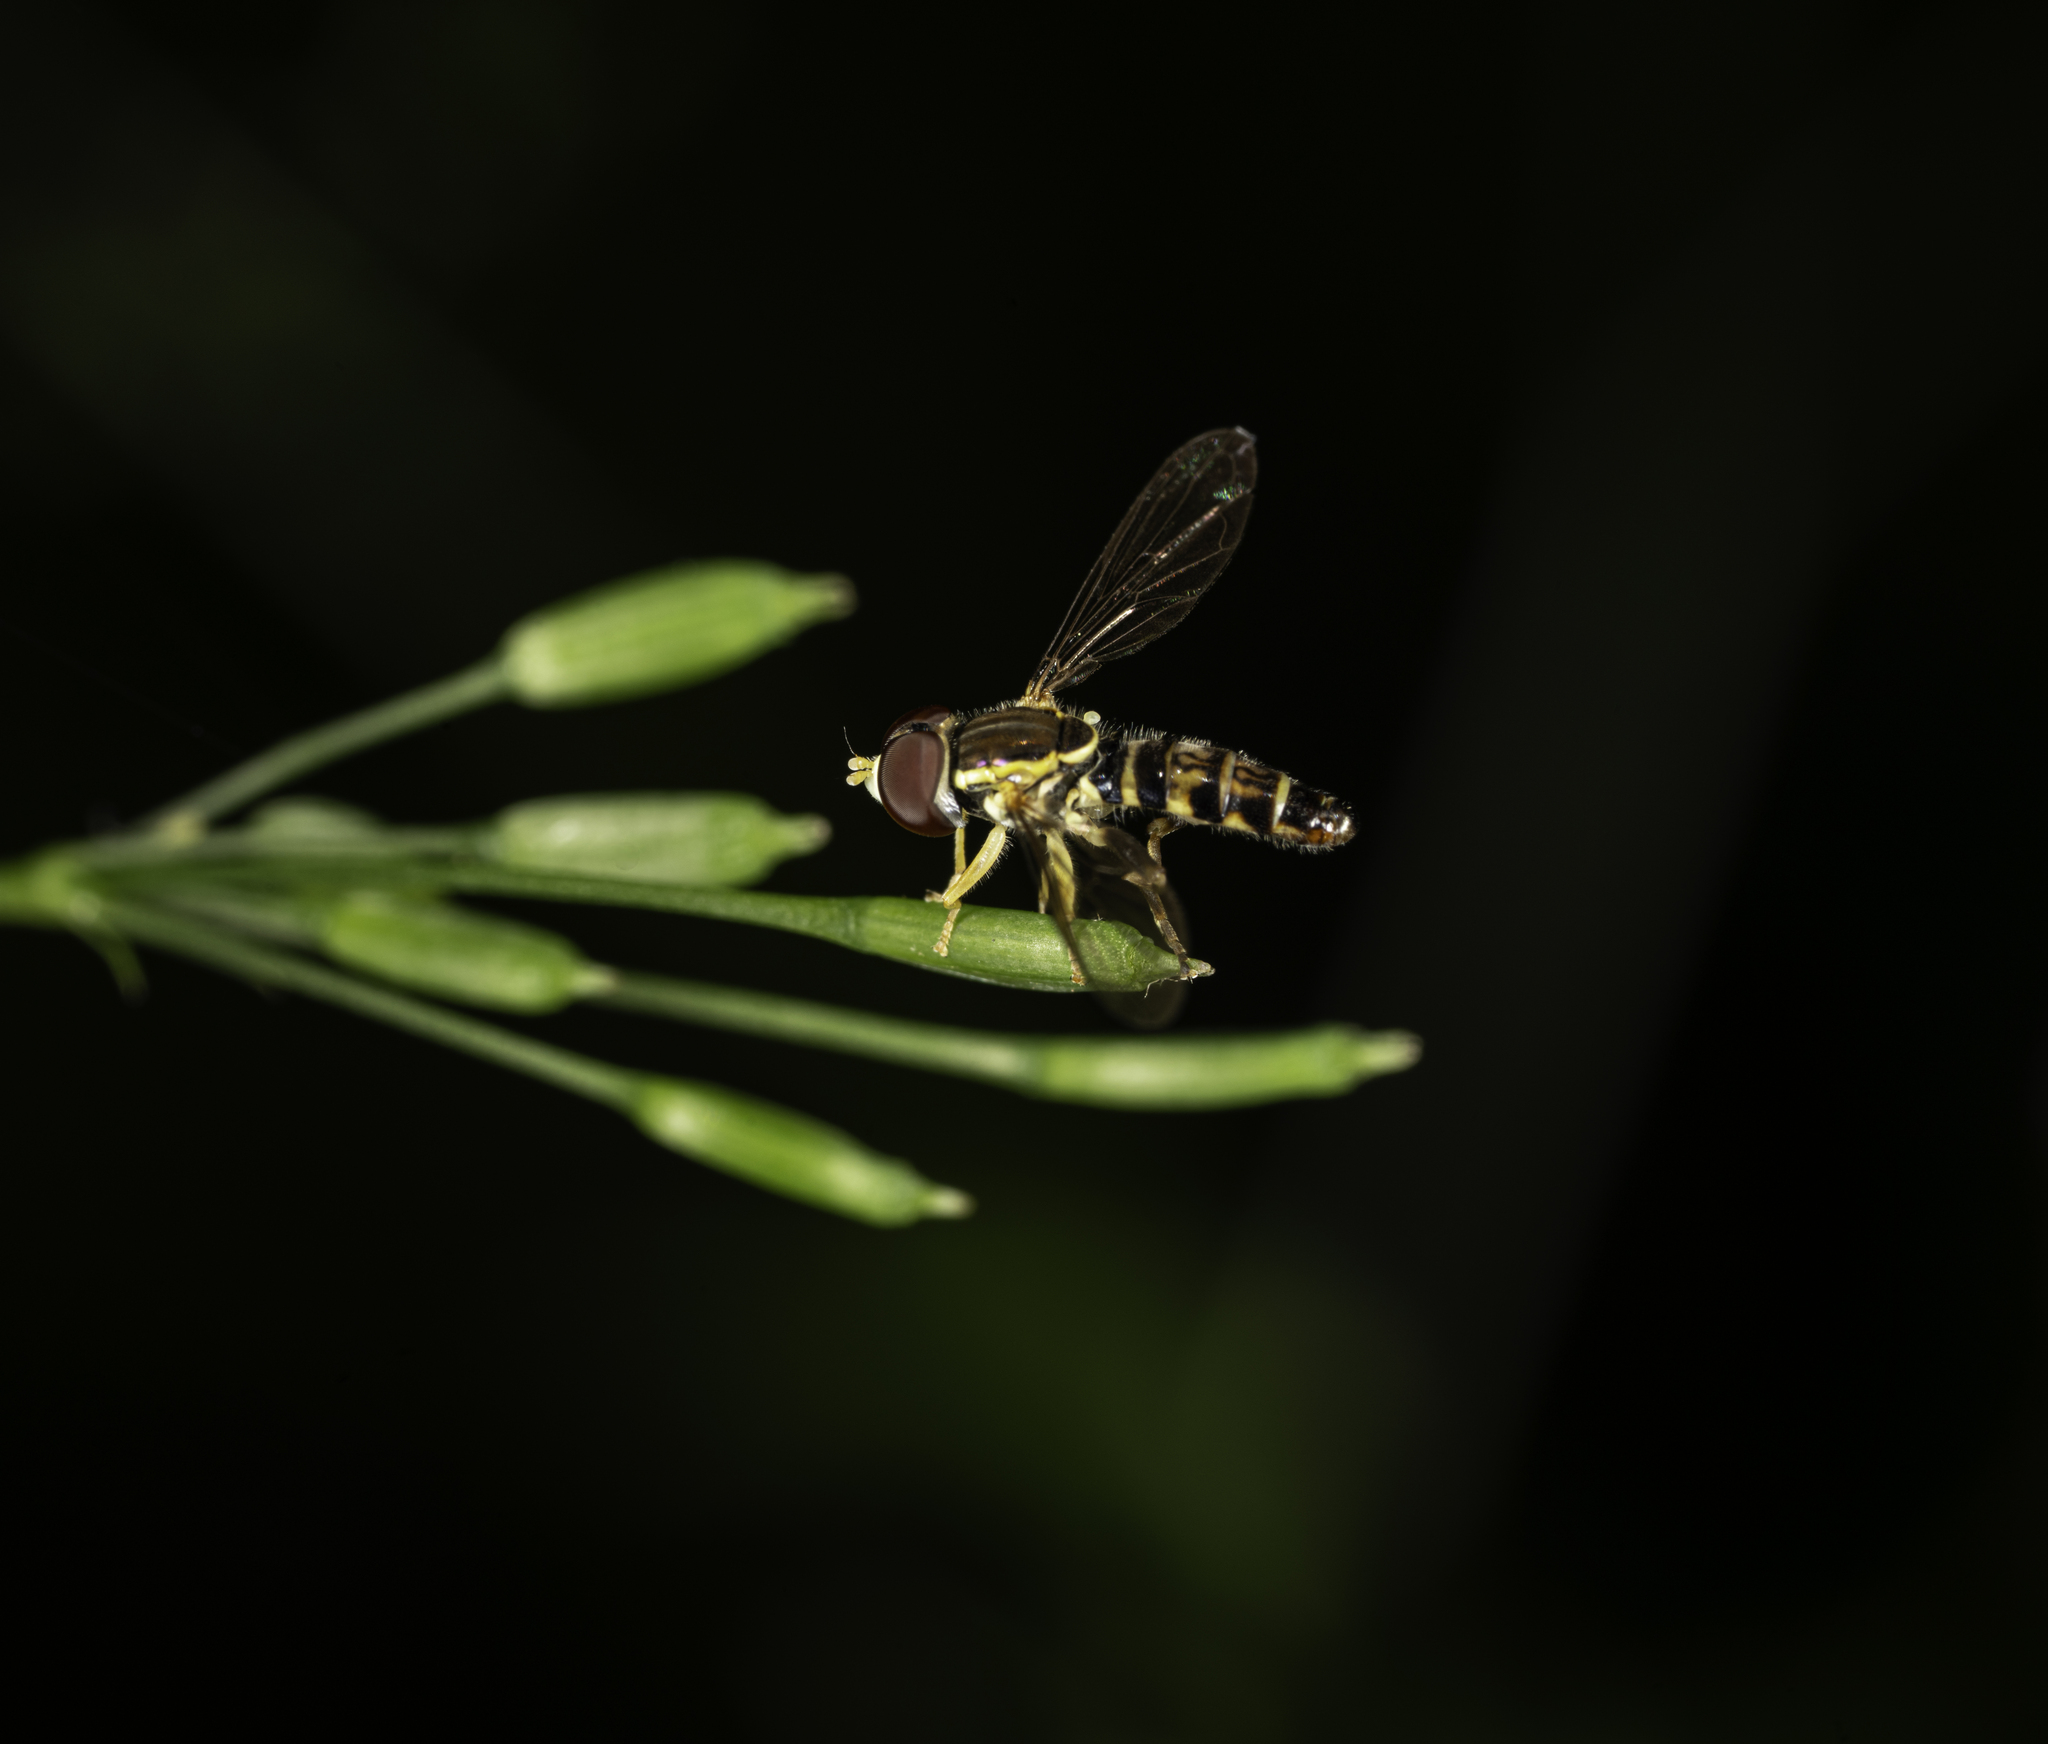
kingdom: Animalia
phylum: Arthropoda
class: Insecta
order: Diptera
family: Syrphidae
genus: Toxomerus
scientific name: Toxomerus geminatus
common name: Eastern calligrapher
